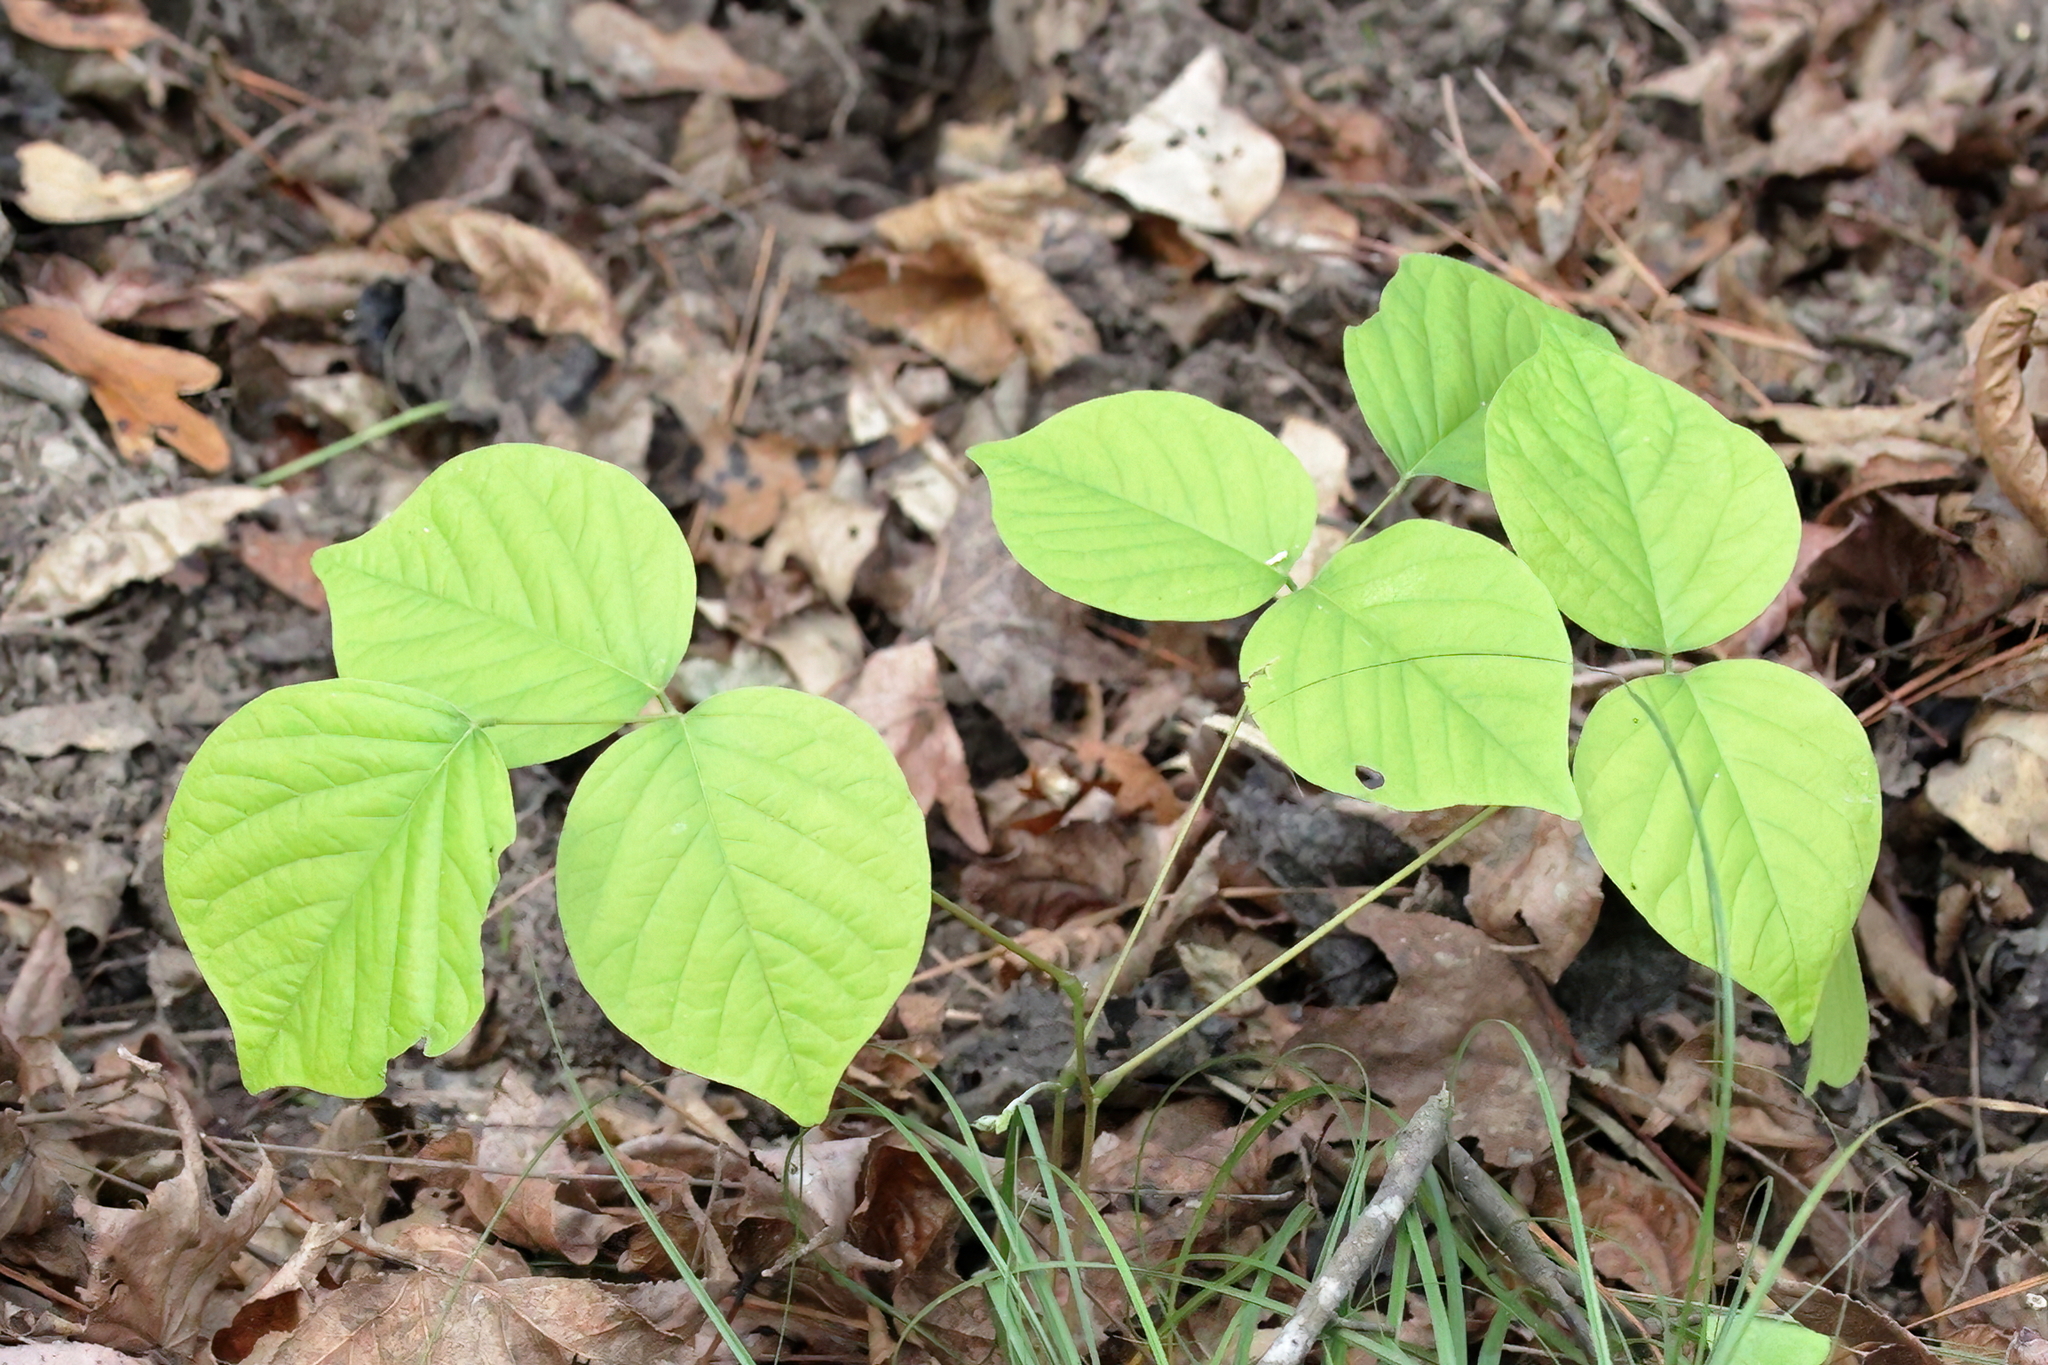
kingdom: Plantae
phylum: Tracheophyta
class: Magnoliopsida
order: Fabales
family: Fabaceae
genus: Lackeya
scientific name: Lackeya multiflora
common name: Boykin's clusterpea
